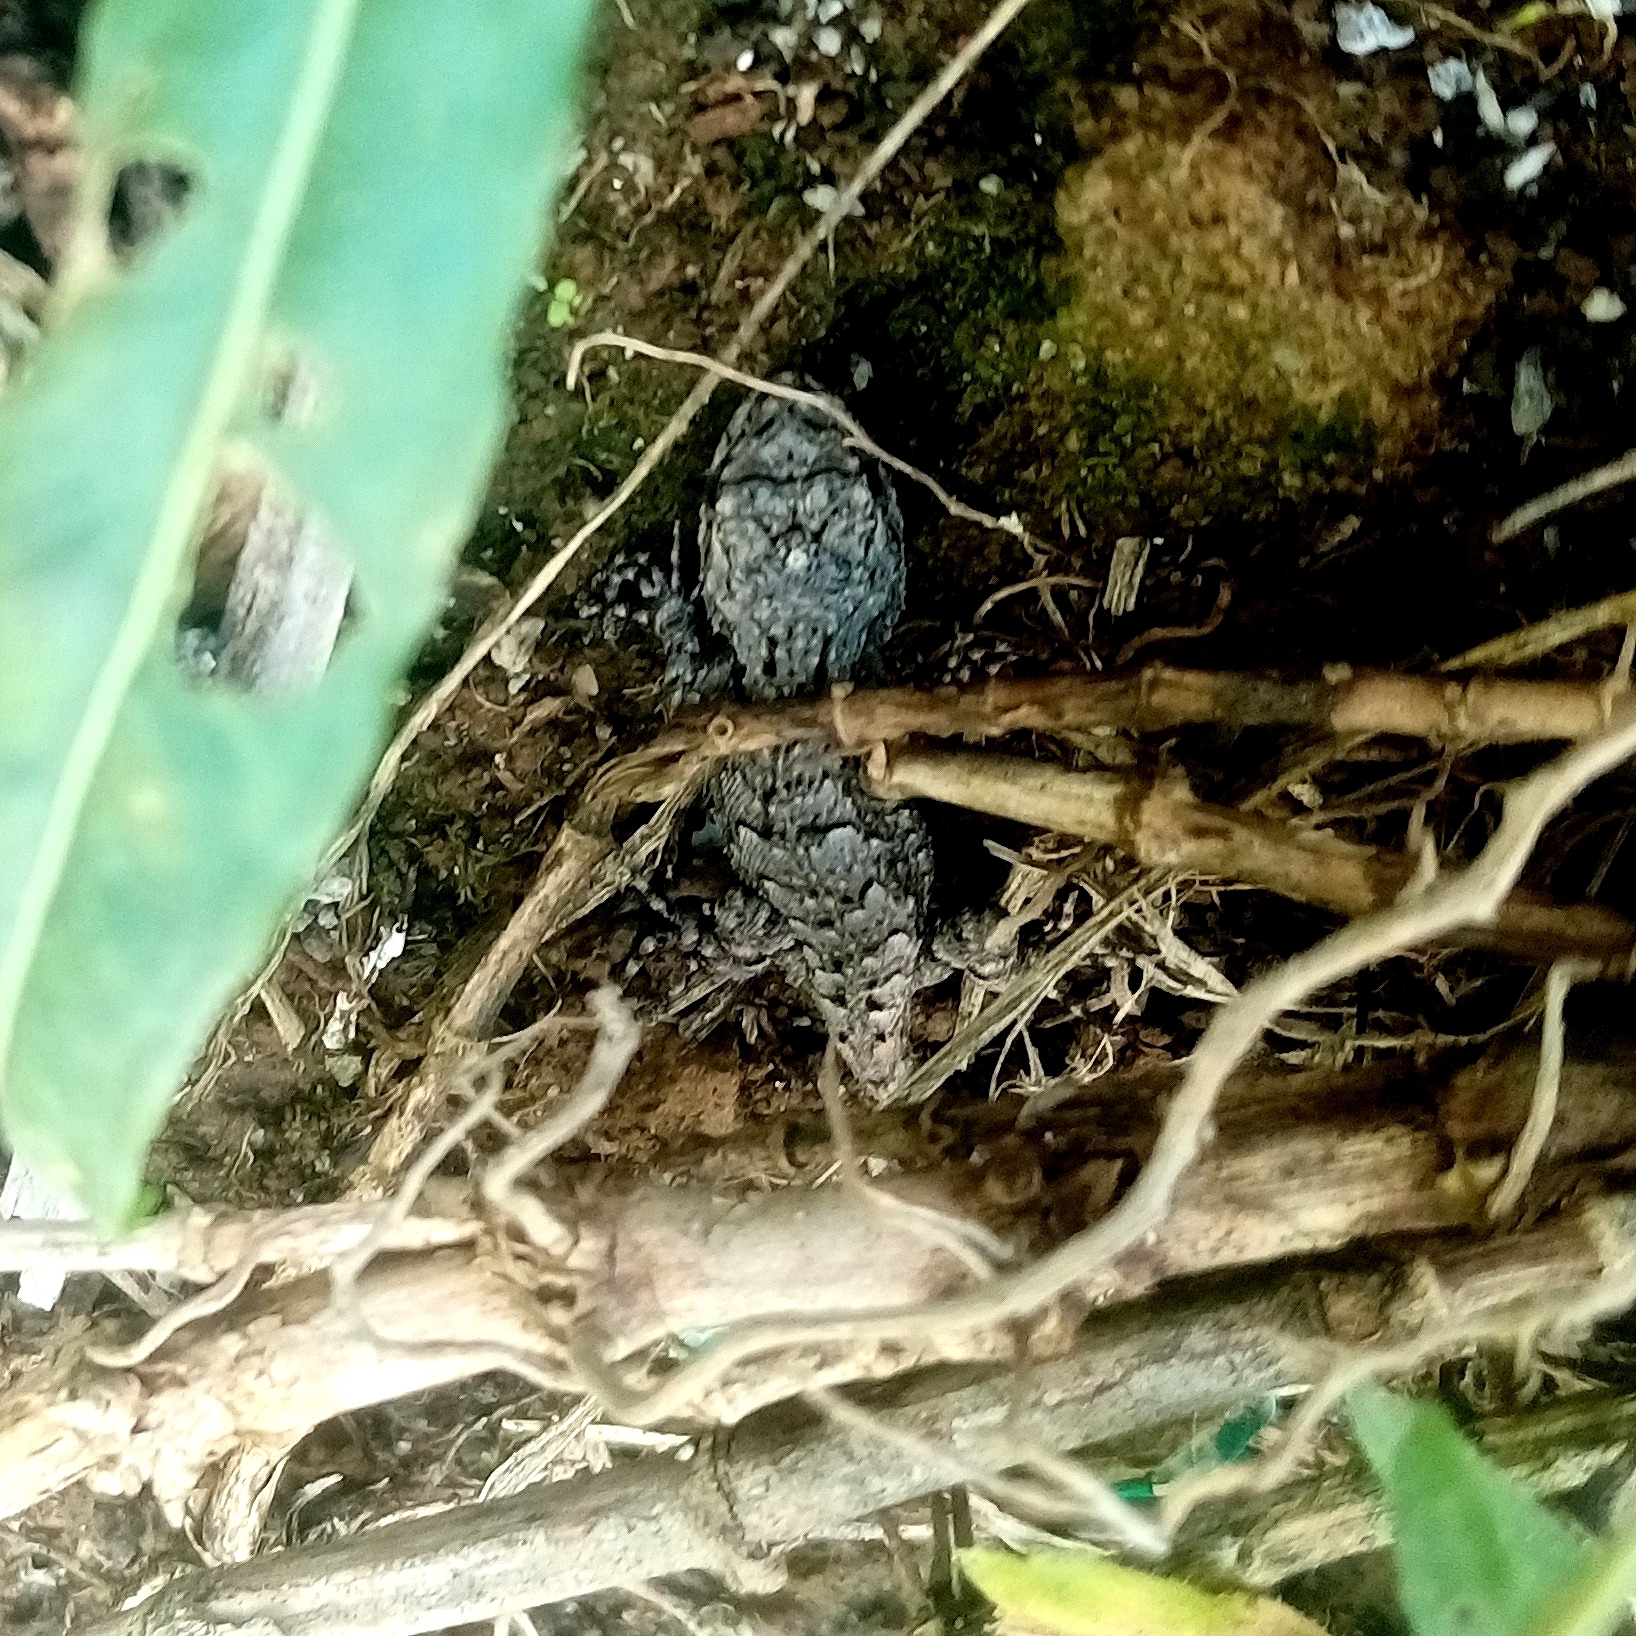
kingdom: Animalia
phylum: Chordata
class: Squamata
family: Phrynosomatidae
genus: Sceloporus
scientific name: Sceloporus grammicus
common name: Mesquite lizard
